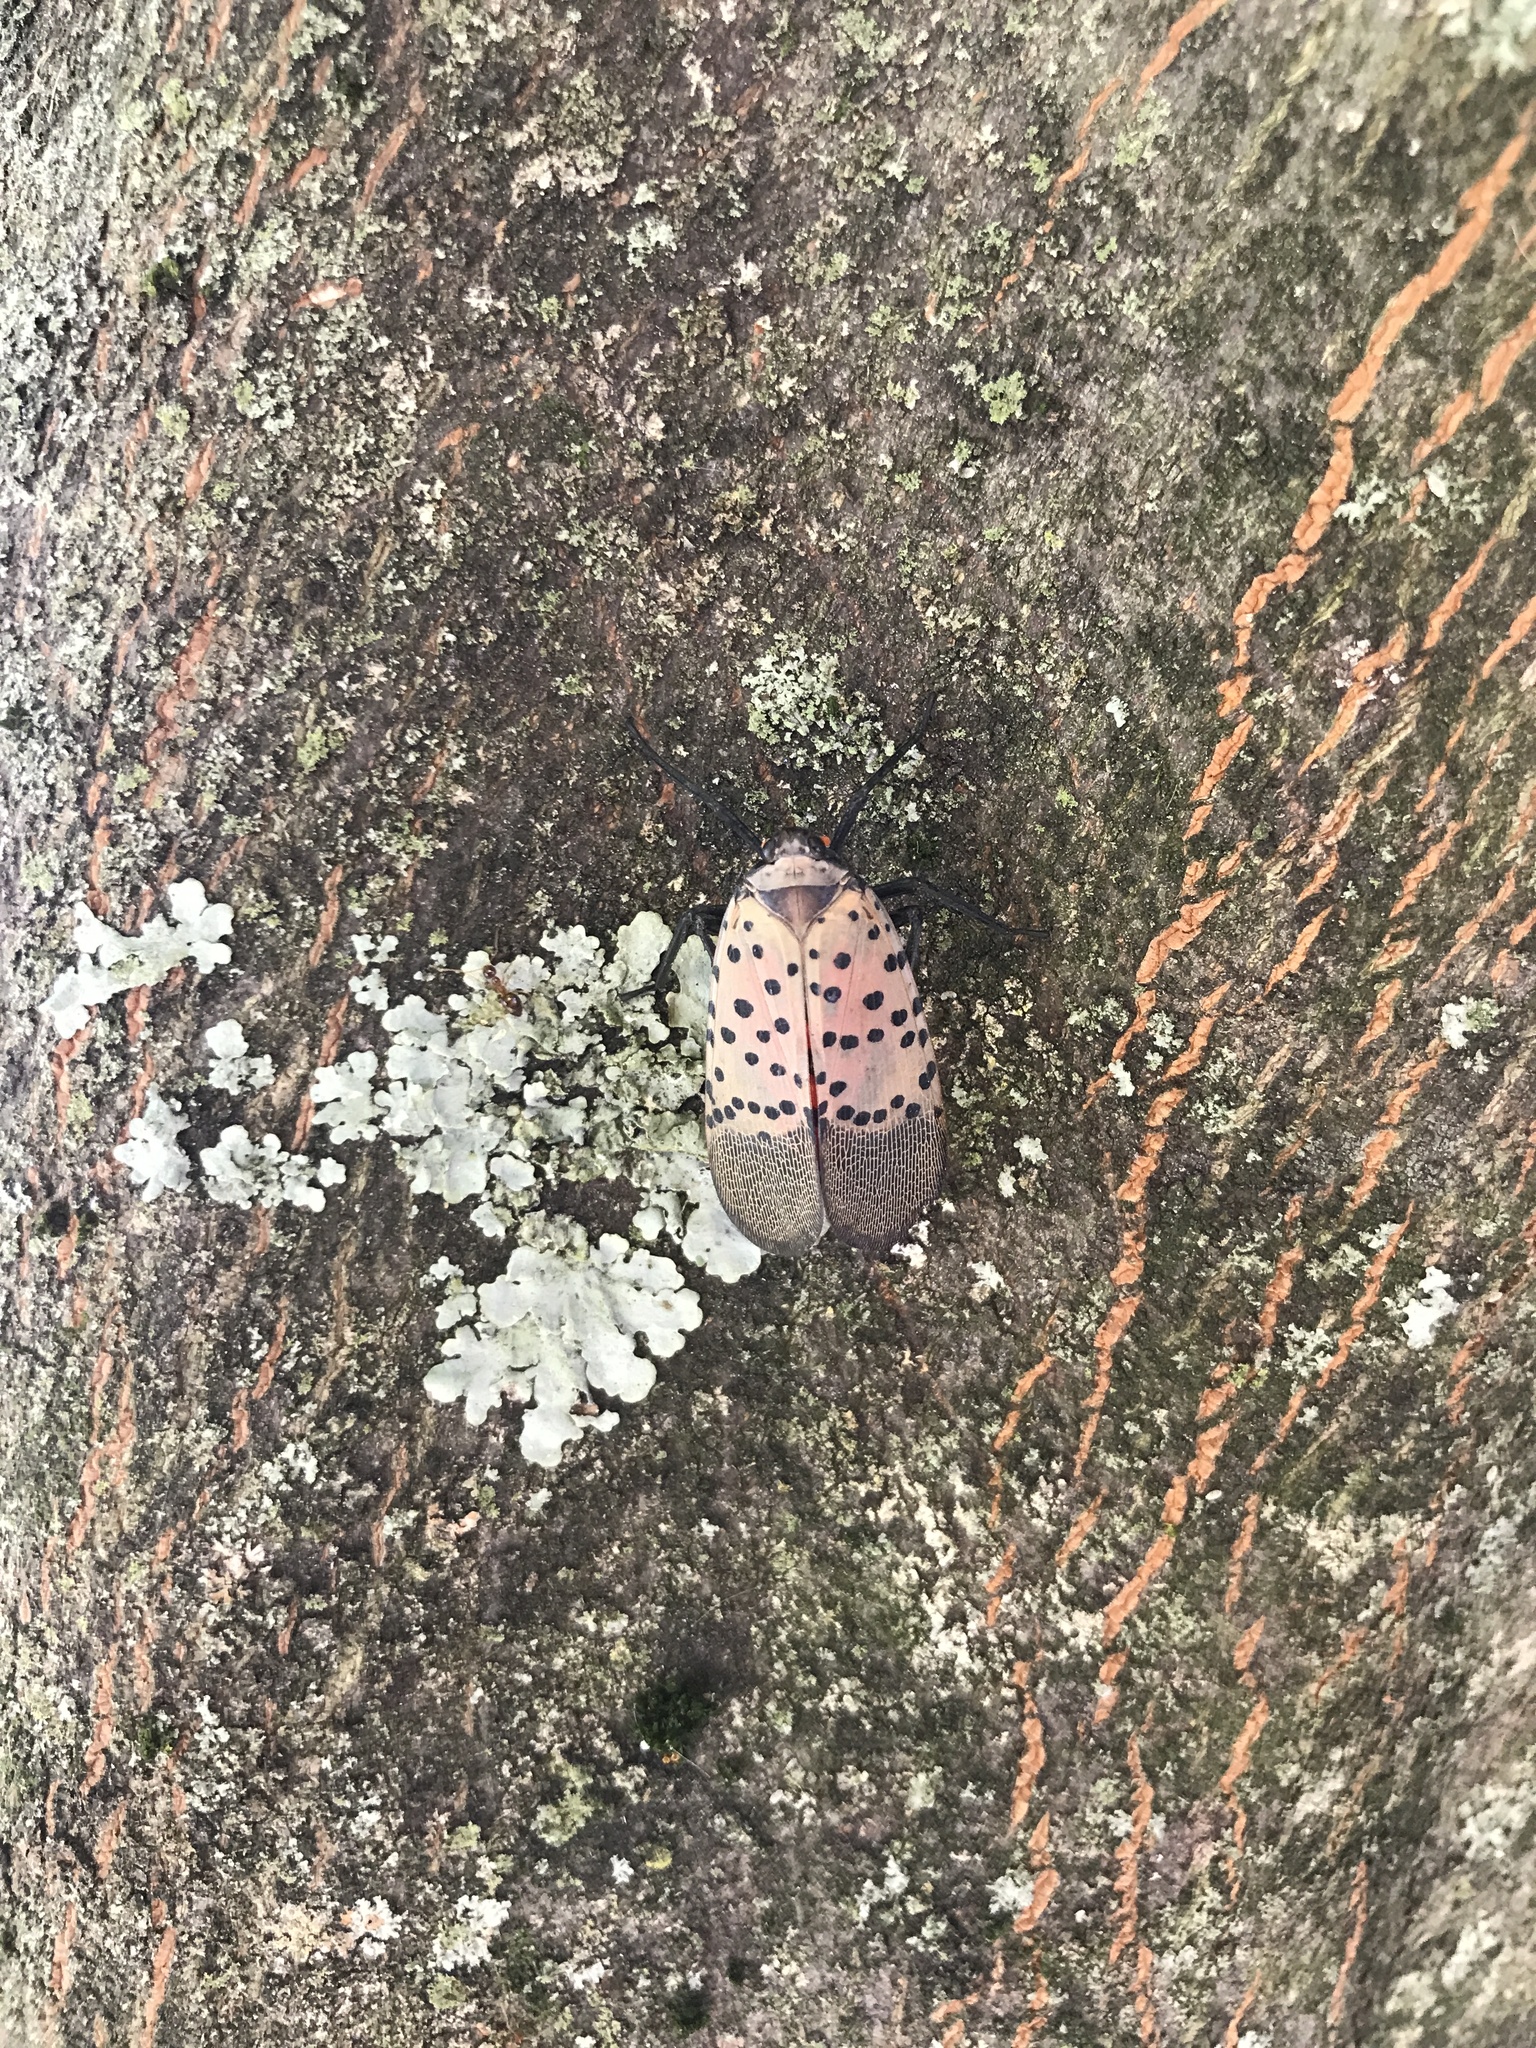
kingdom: Animalia
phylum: Arthropoda
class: Insecta
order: Hemiptera
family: Fulgoridae
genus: Lycorma
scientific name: Lycorma delicatula
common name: Spotted lanternfly
